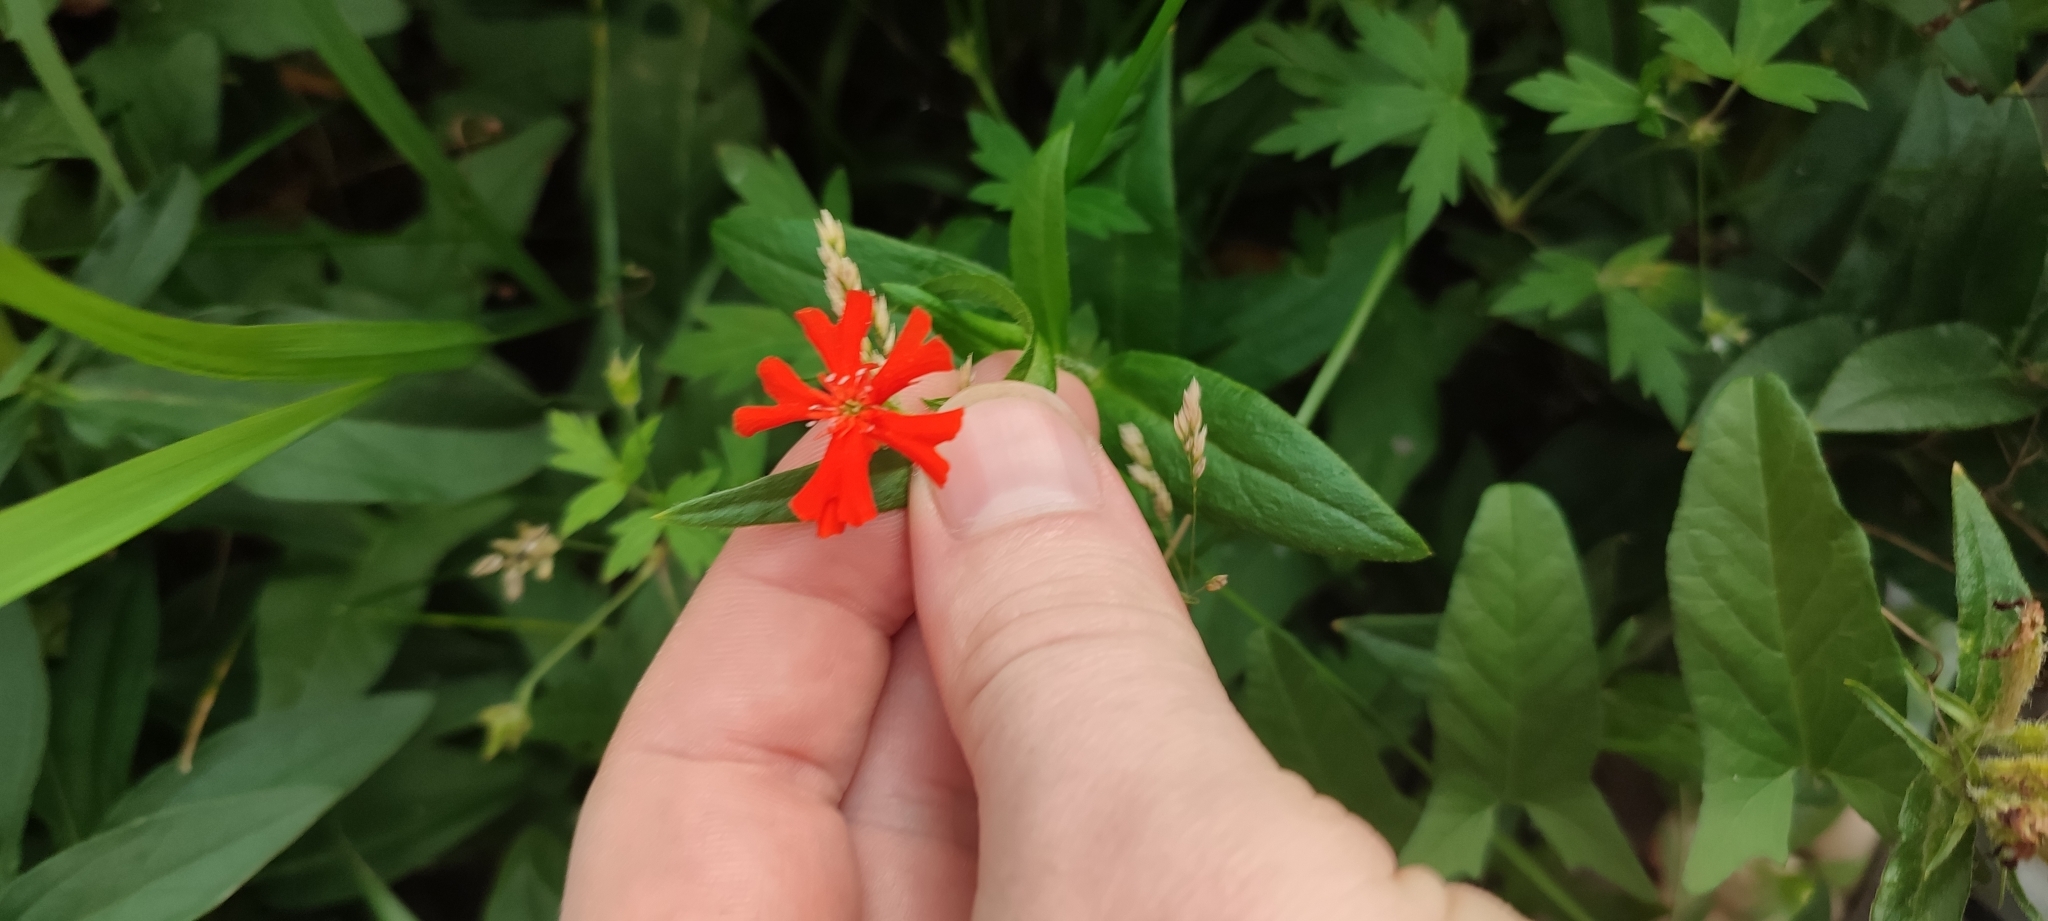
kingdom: Plantae
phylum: Tracheophyta
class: Magnoliopsida
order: Caryophyllales
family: Caryophyllaceae
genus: Silene
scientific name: Silene chalcedonica
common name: Maltese-cross
